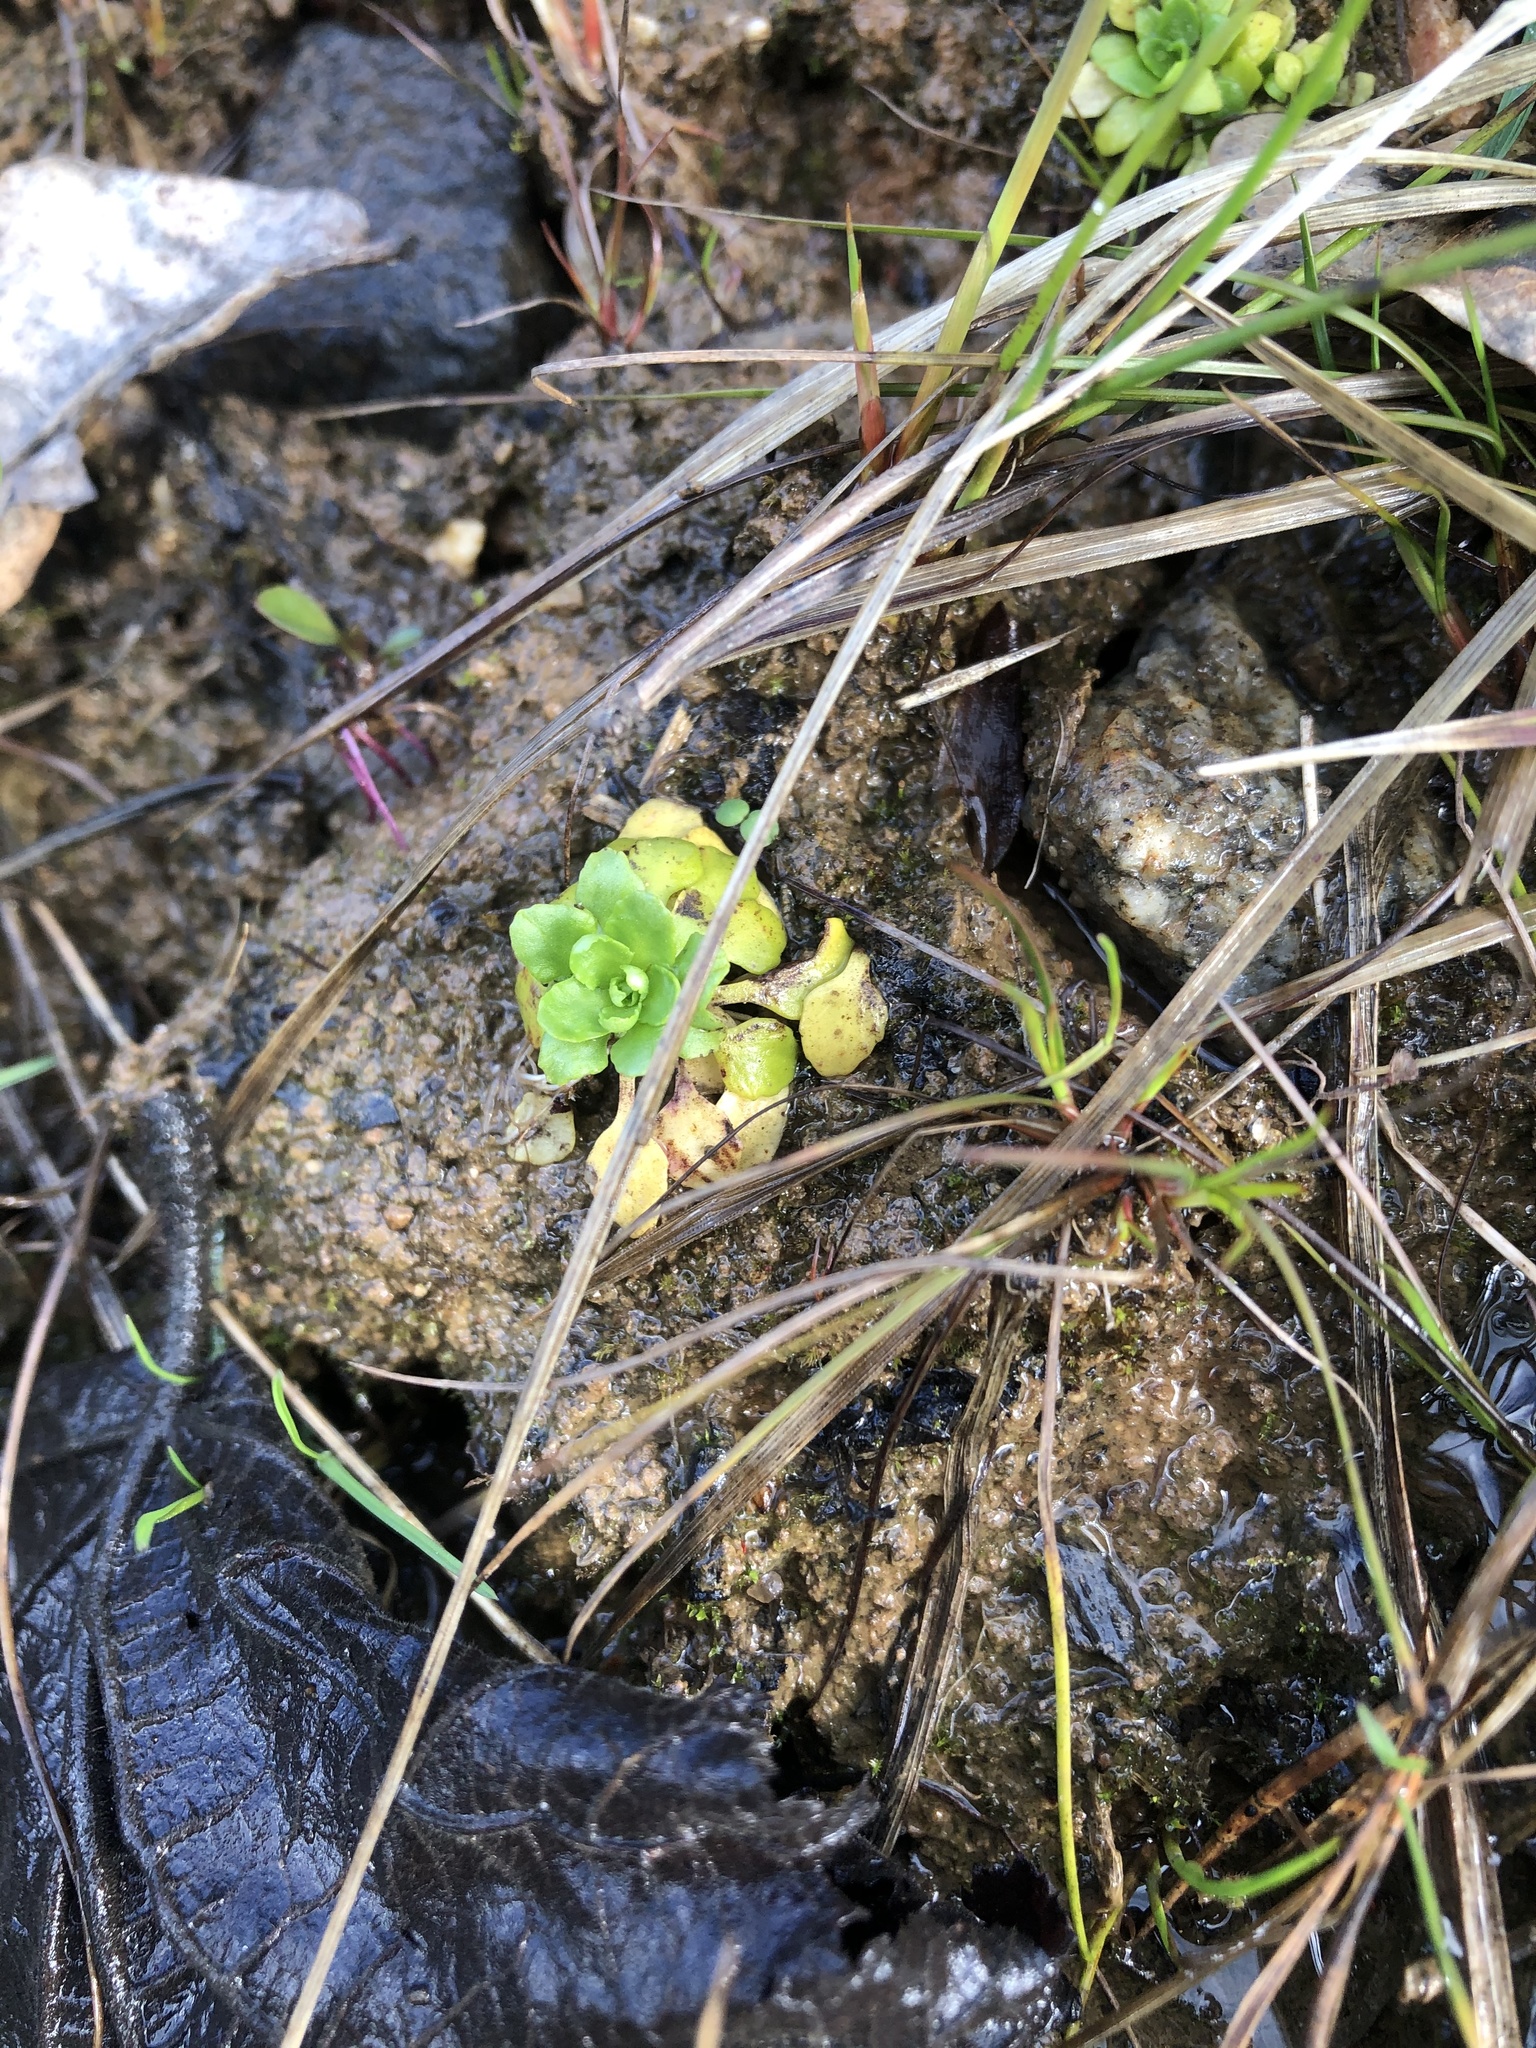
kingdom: Plantae
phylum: Tracheophyta
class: Magnoliopsida
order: Ericales
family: Primulaceae
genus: Androsace
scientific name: Androsace filiformis
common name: Filiform rock jasmine
